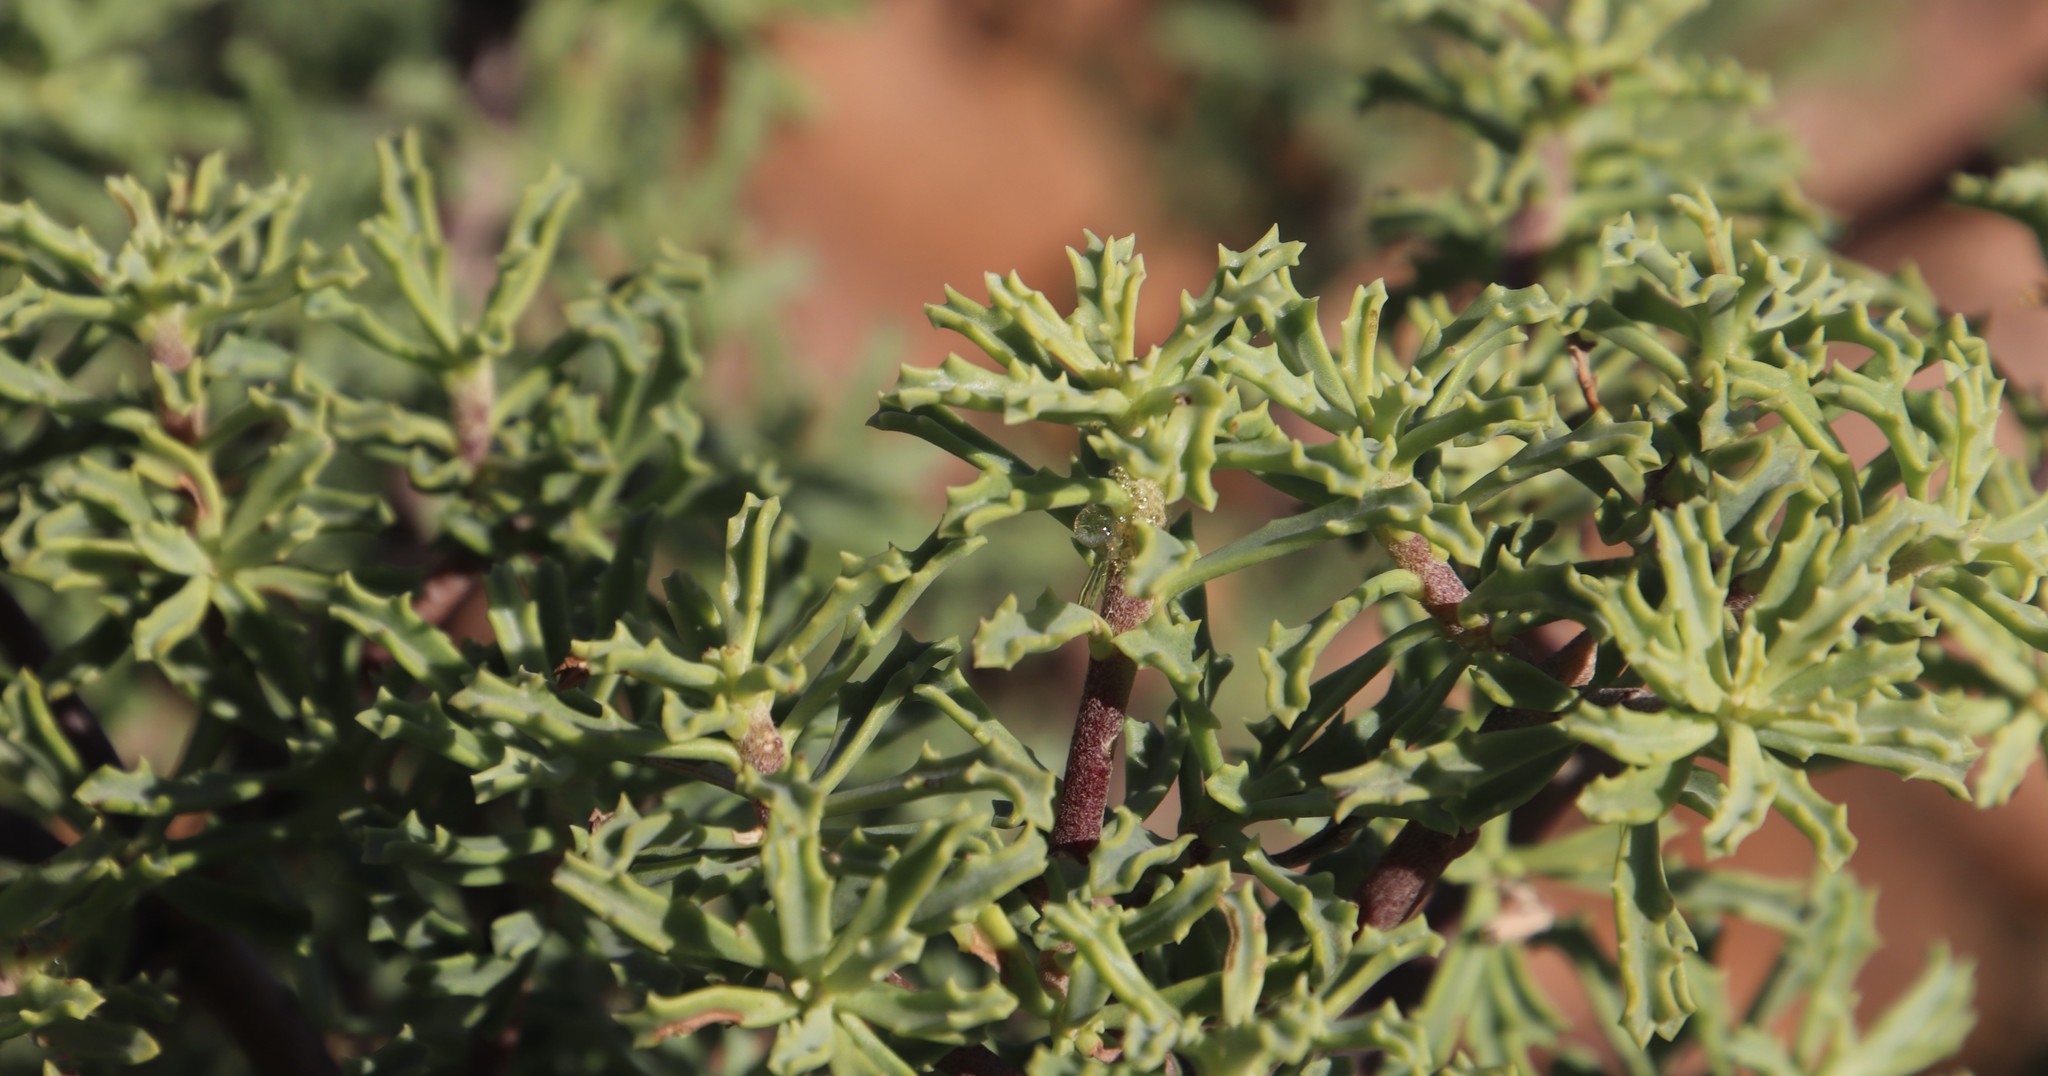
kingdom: Plantae
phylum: Tracheophyta
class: Magnoliopsida
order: Asterales
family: Asteraceae
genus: Othonna
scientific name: Othonna divaricata
